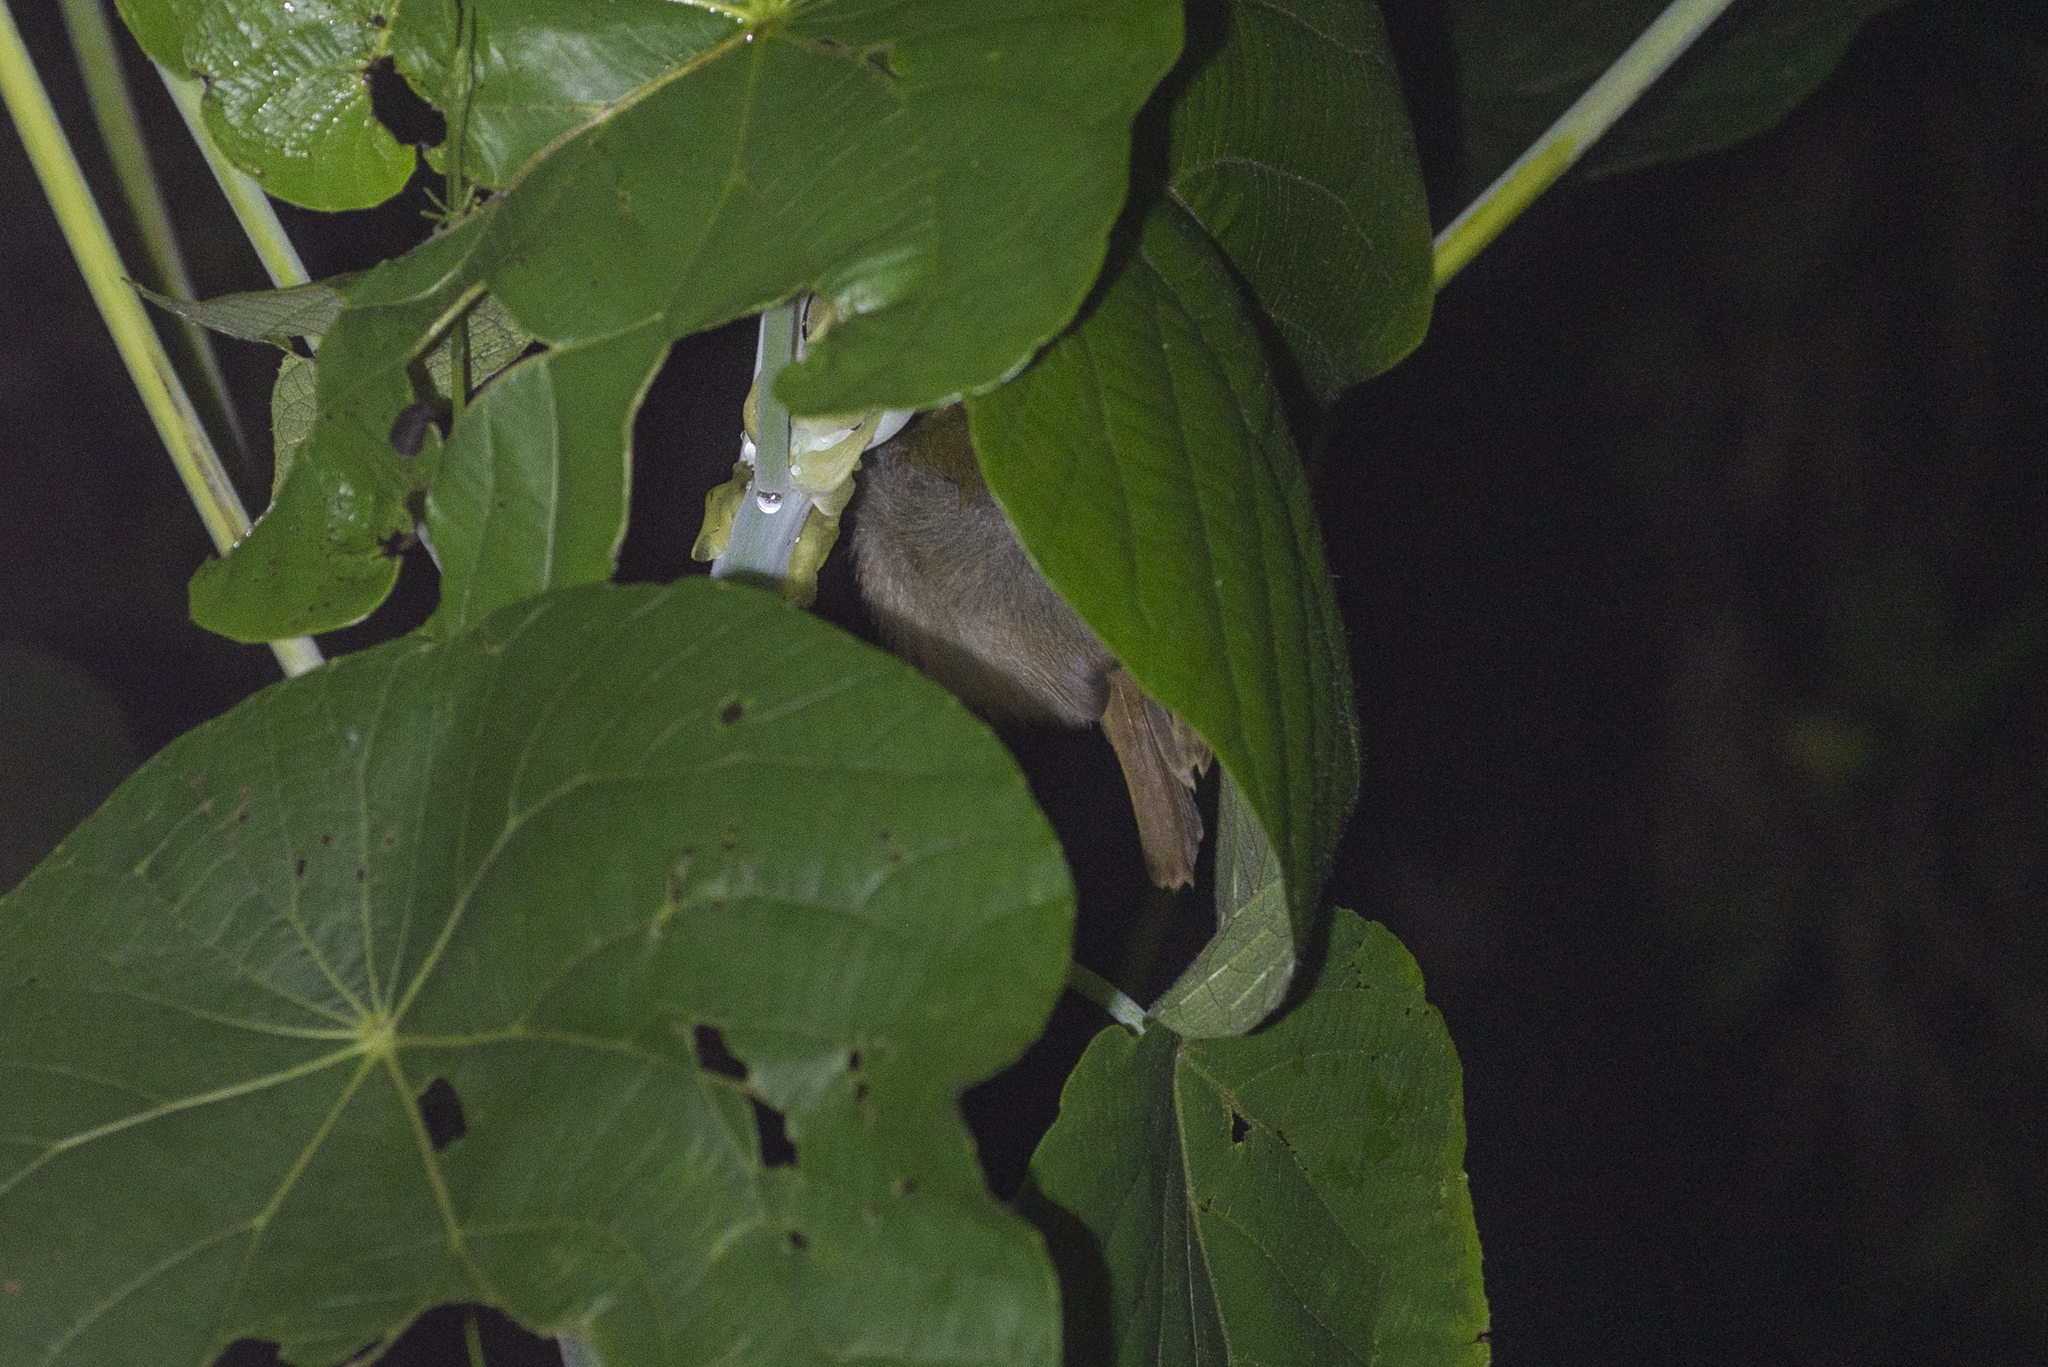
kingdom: Animalia
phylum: Chordata
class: Aves
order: Passeriformes
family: Cisticolidae
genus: Orthotomus
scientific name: Orthotomus sutorius
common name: Common tailorbird
